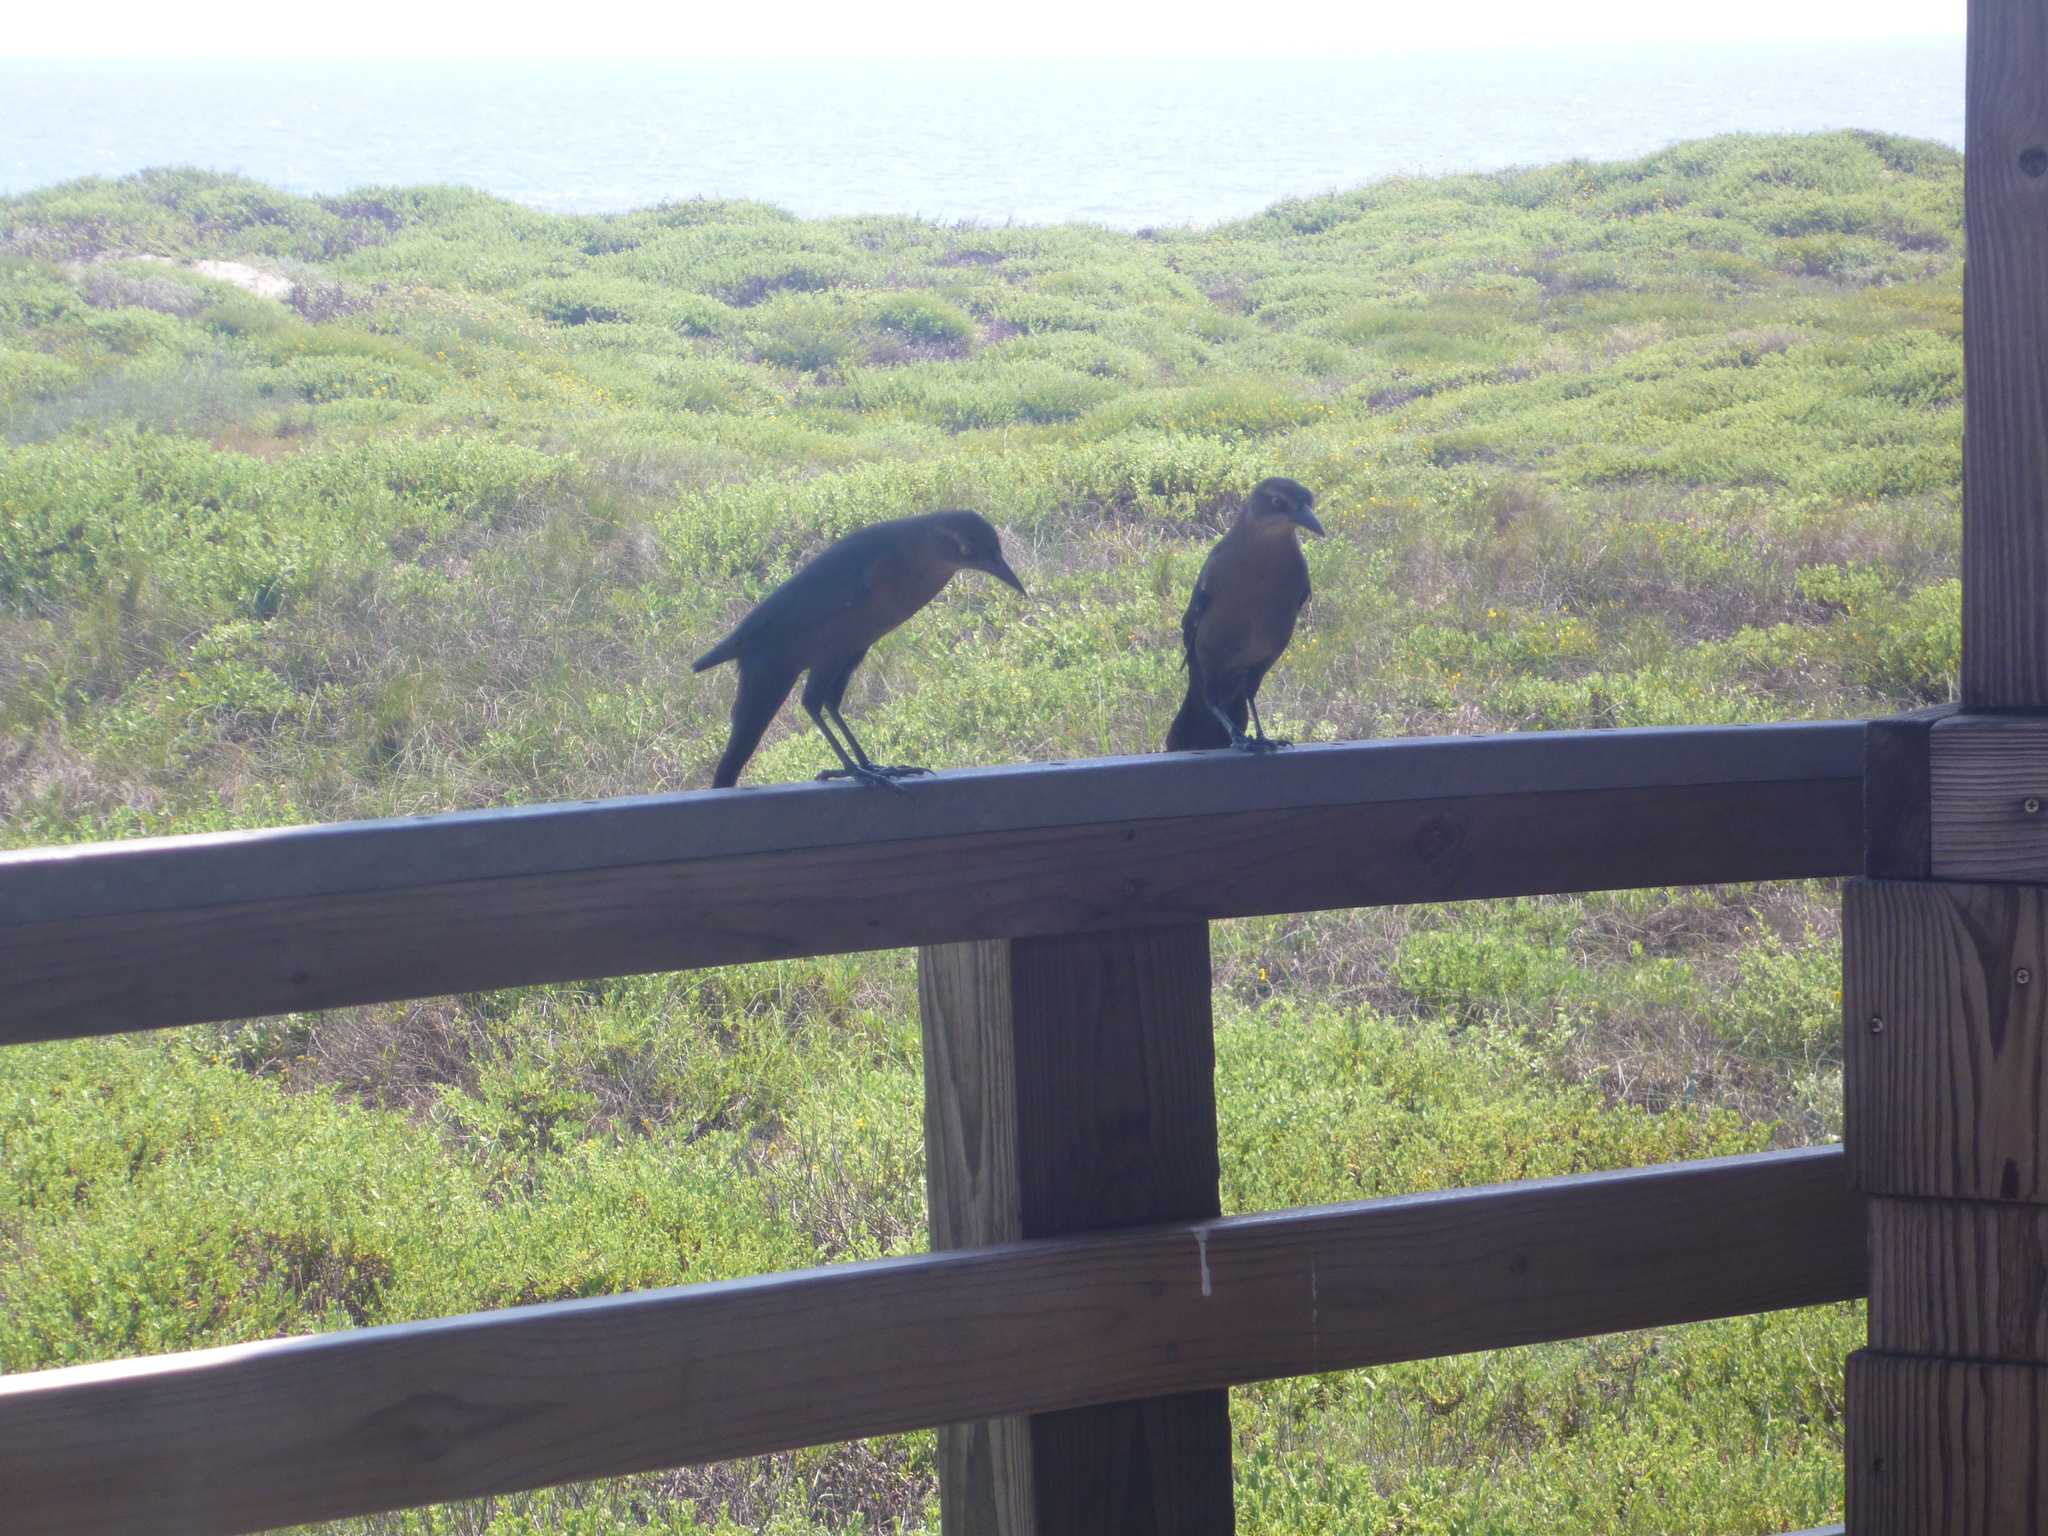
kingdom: Animalia
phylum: Chordata
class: Aves
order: Passeriformes
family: Icteridae
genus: Quiscalus
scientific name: Quiscalus mexicanus
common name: Great-tailed grackle
